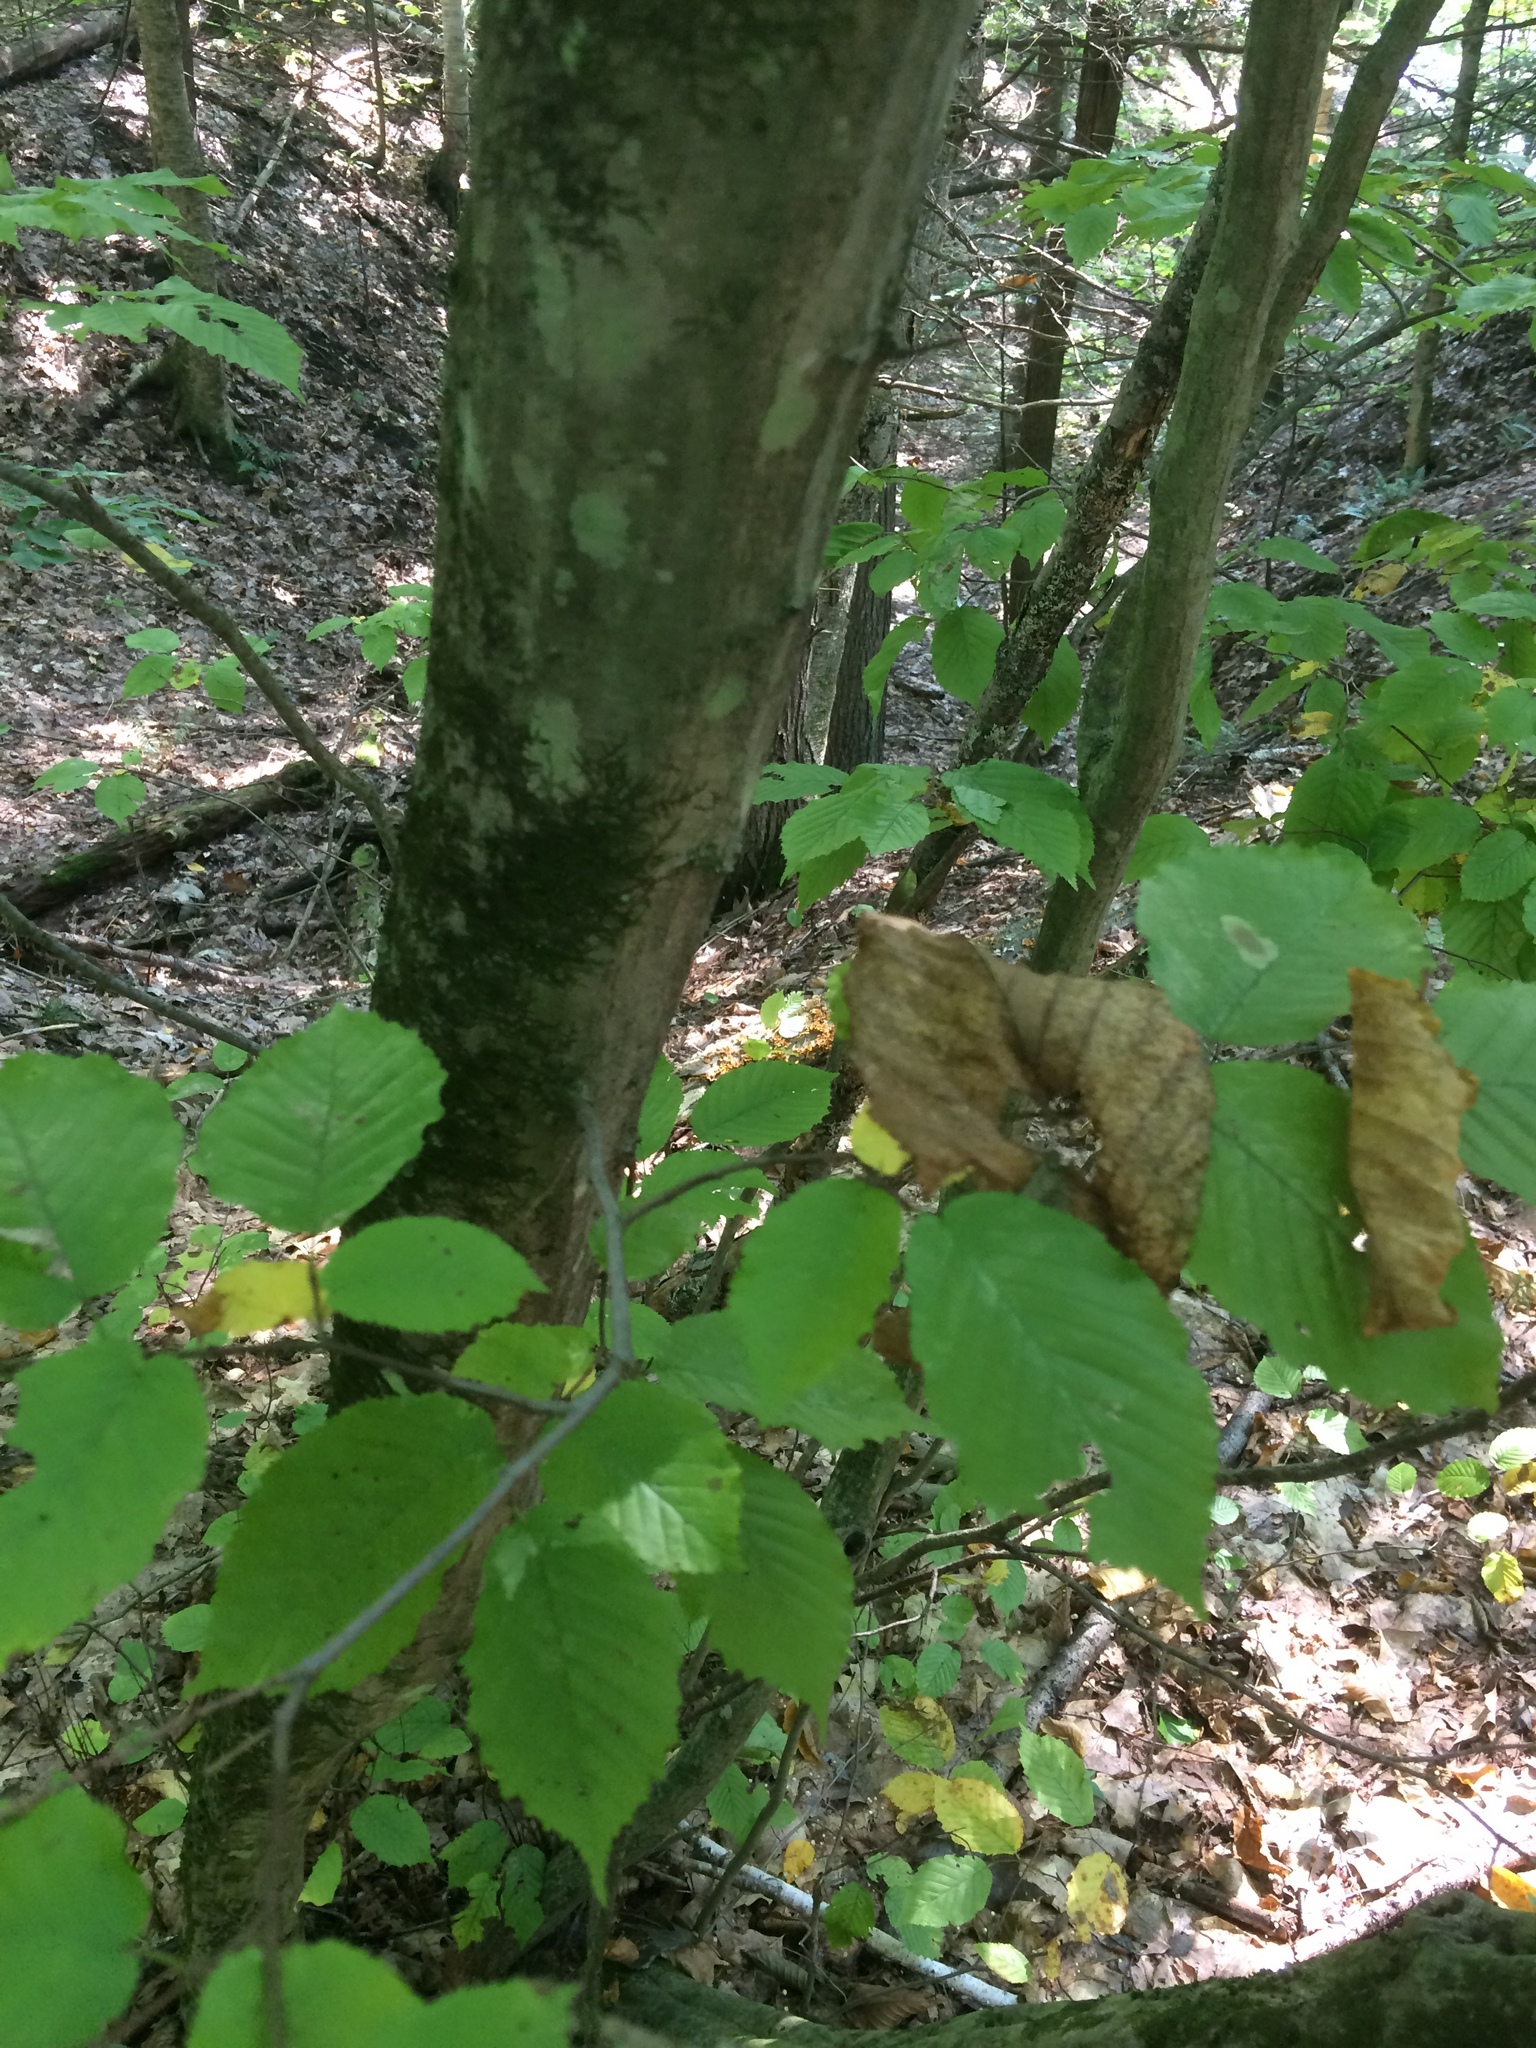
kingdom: Plantae
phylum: Tracheophyta
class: Magnoliopsida
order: Fagales
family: Betulaceae
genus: Carpinus
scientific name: Carpinus caroliniana
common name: American hornbeam
